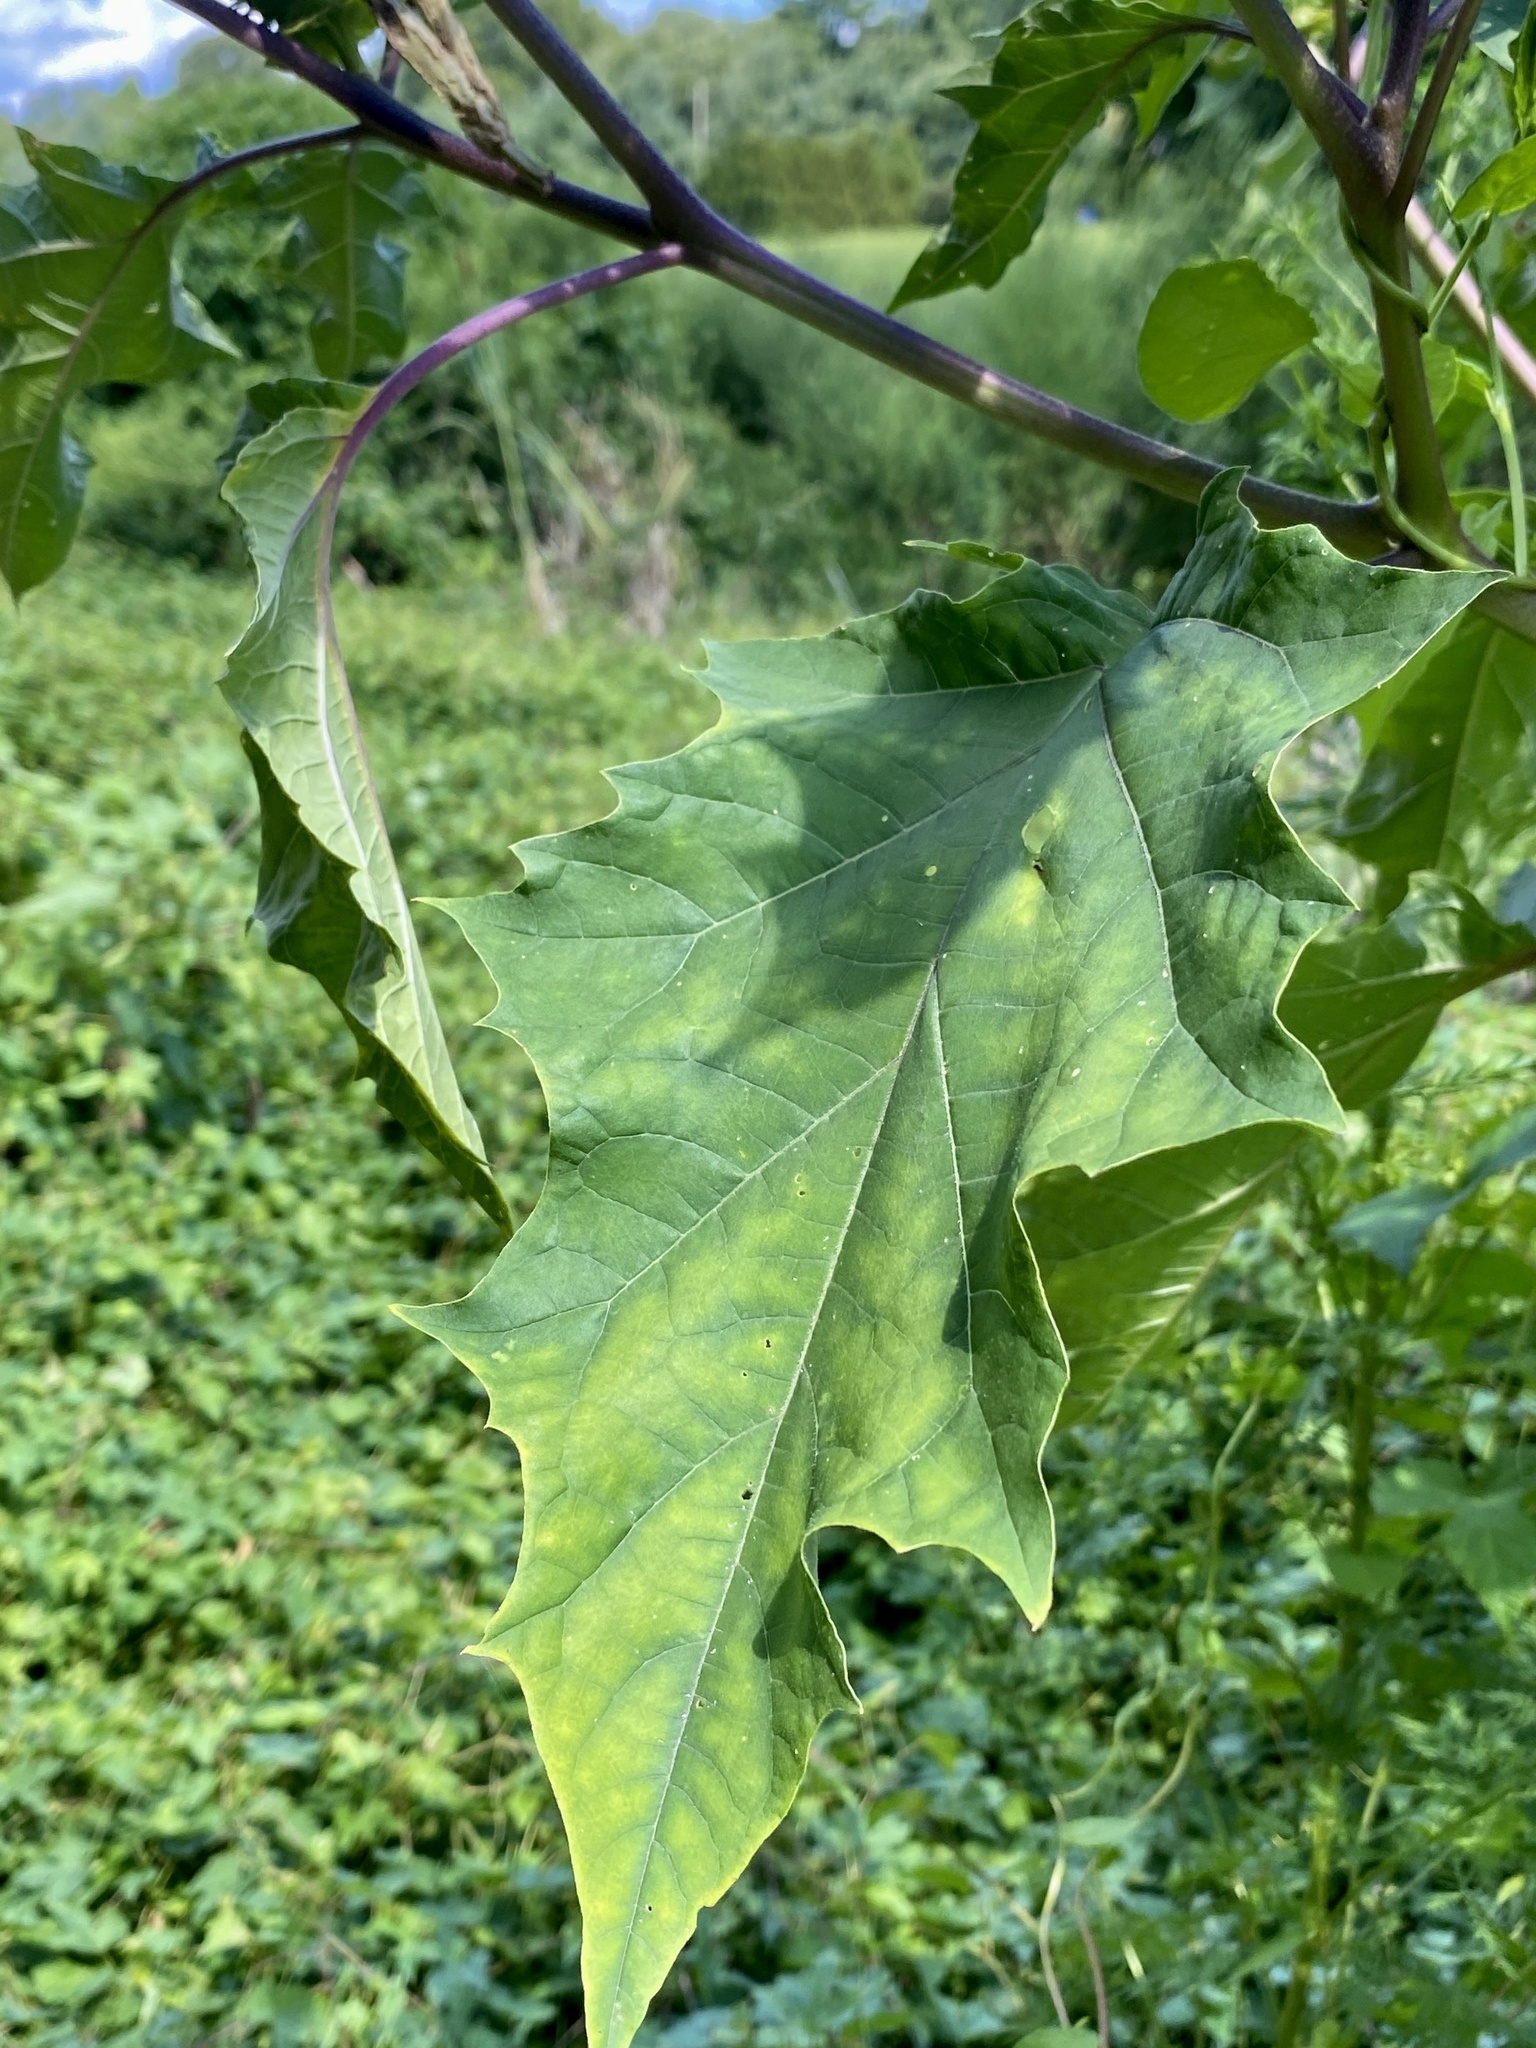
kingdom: Plantae
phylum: Tracheophyta
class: Magnoliopsida
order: Solanales
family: Solanaceae
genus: Datura
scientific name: Datura stramonium
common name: Thorn-apple
